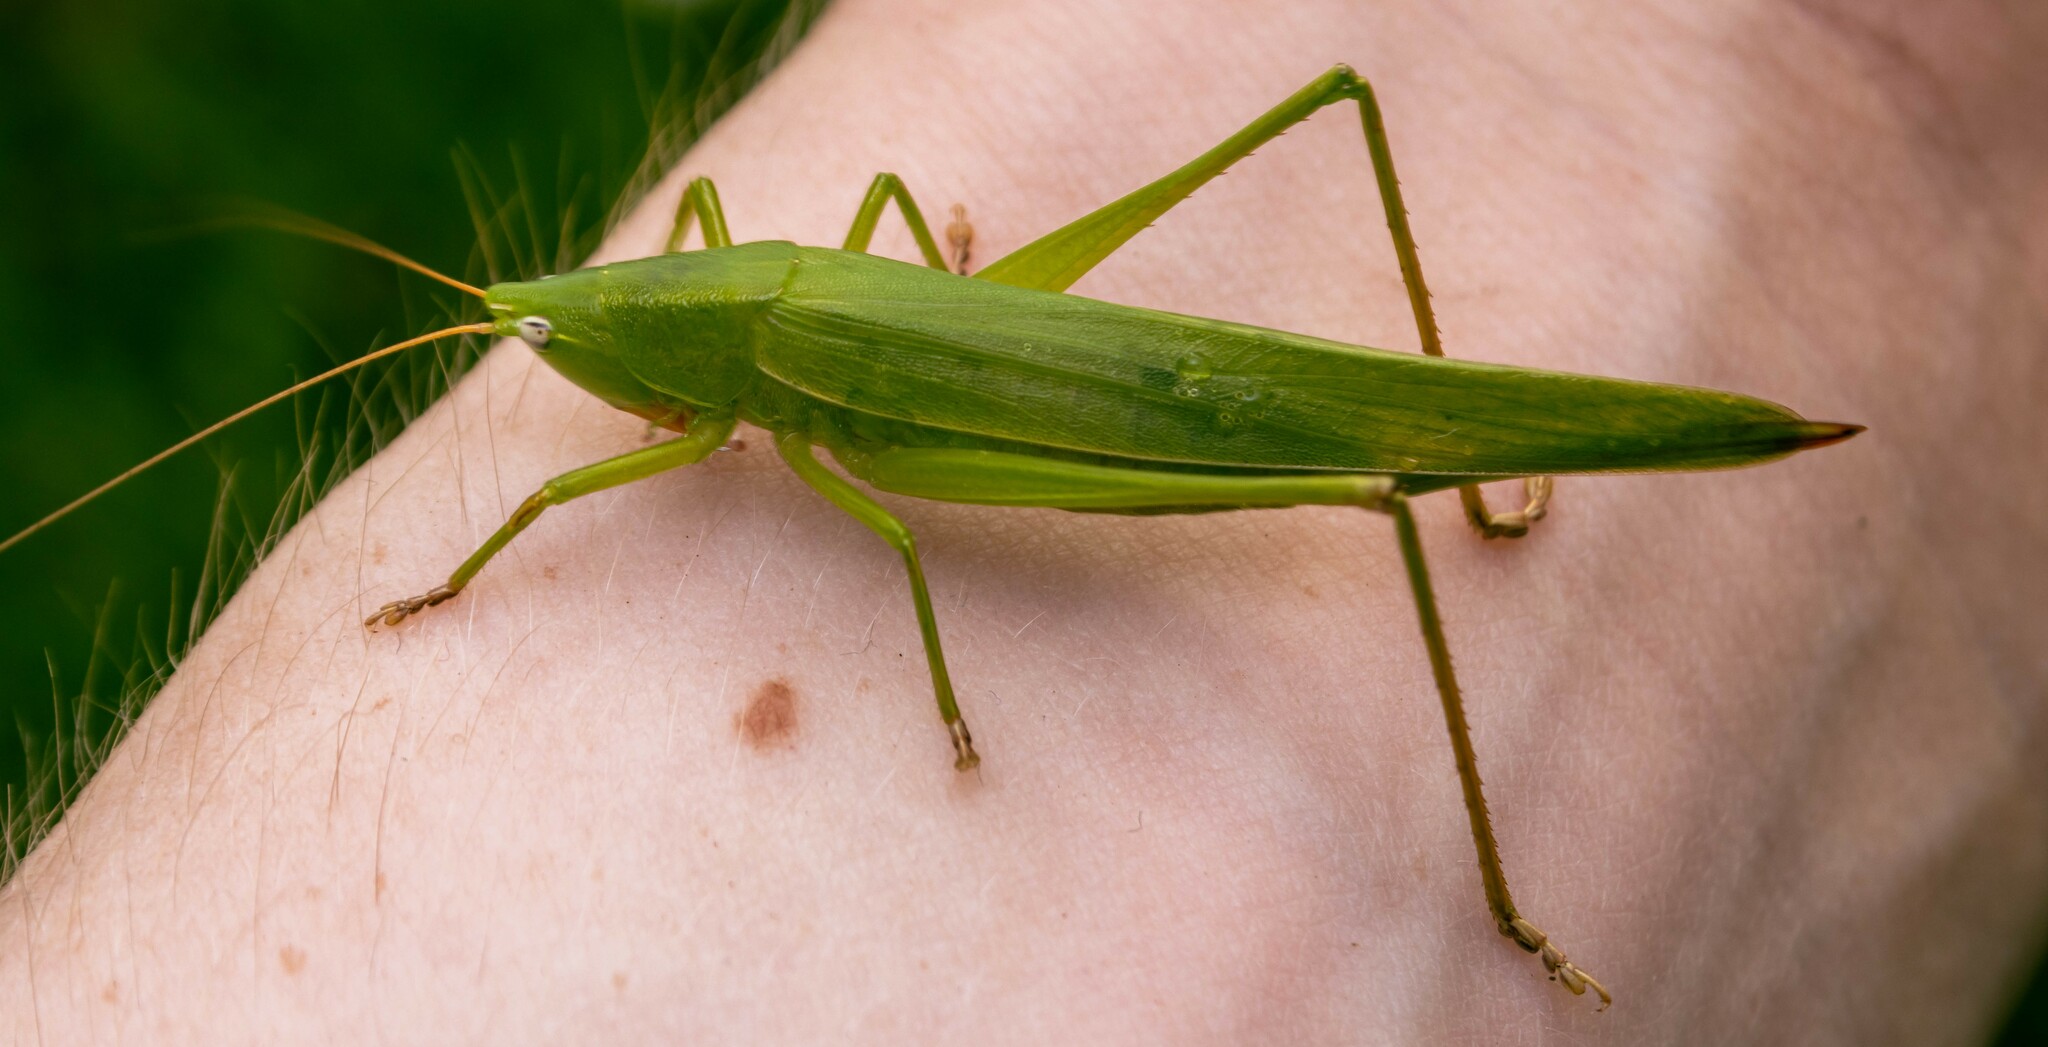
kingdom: Animalia
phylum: Arthropoda
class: Insecta
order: Orthoptera
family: Tettigoniidae
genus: Ruspolia
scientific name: Ruspolia nitidula
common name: Large conehead
